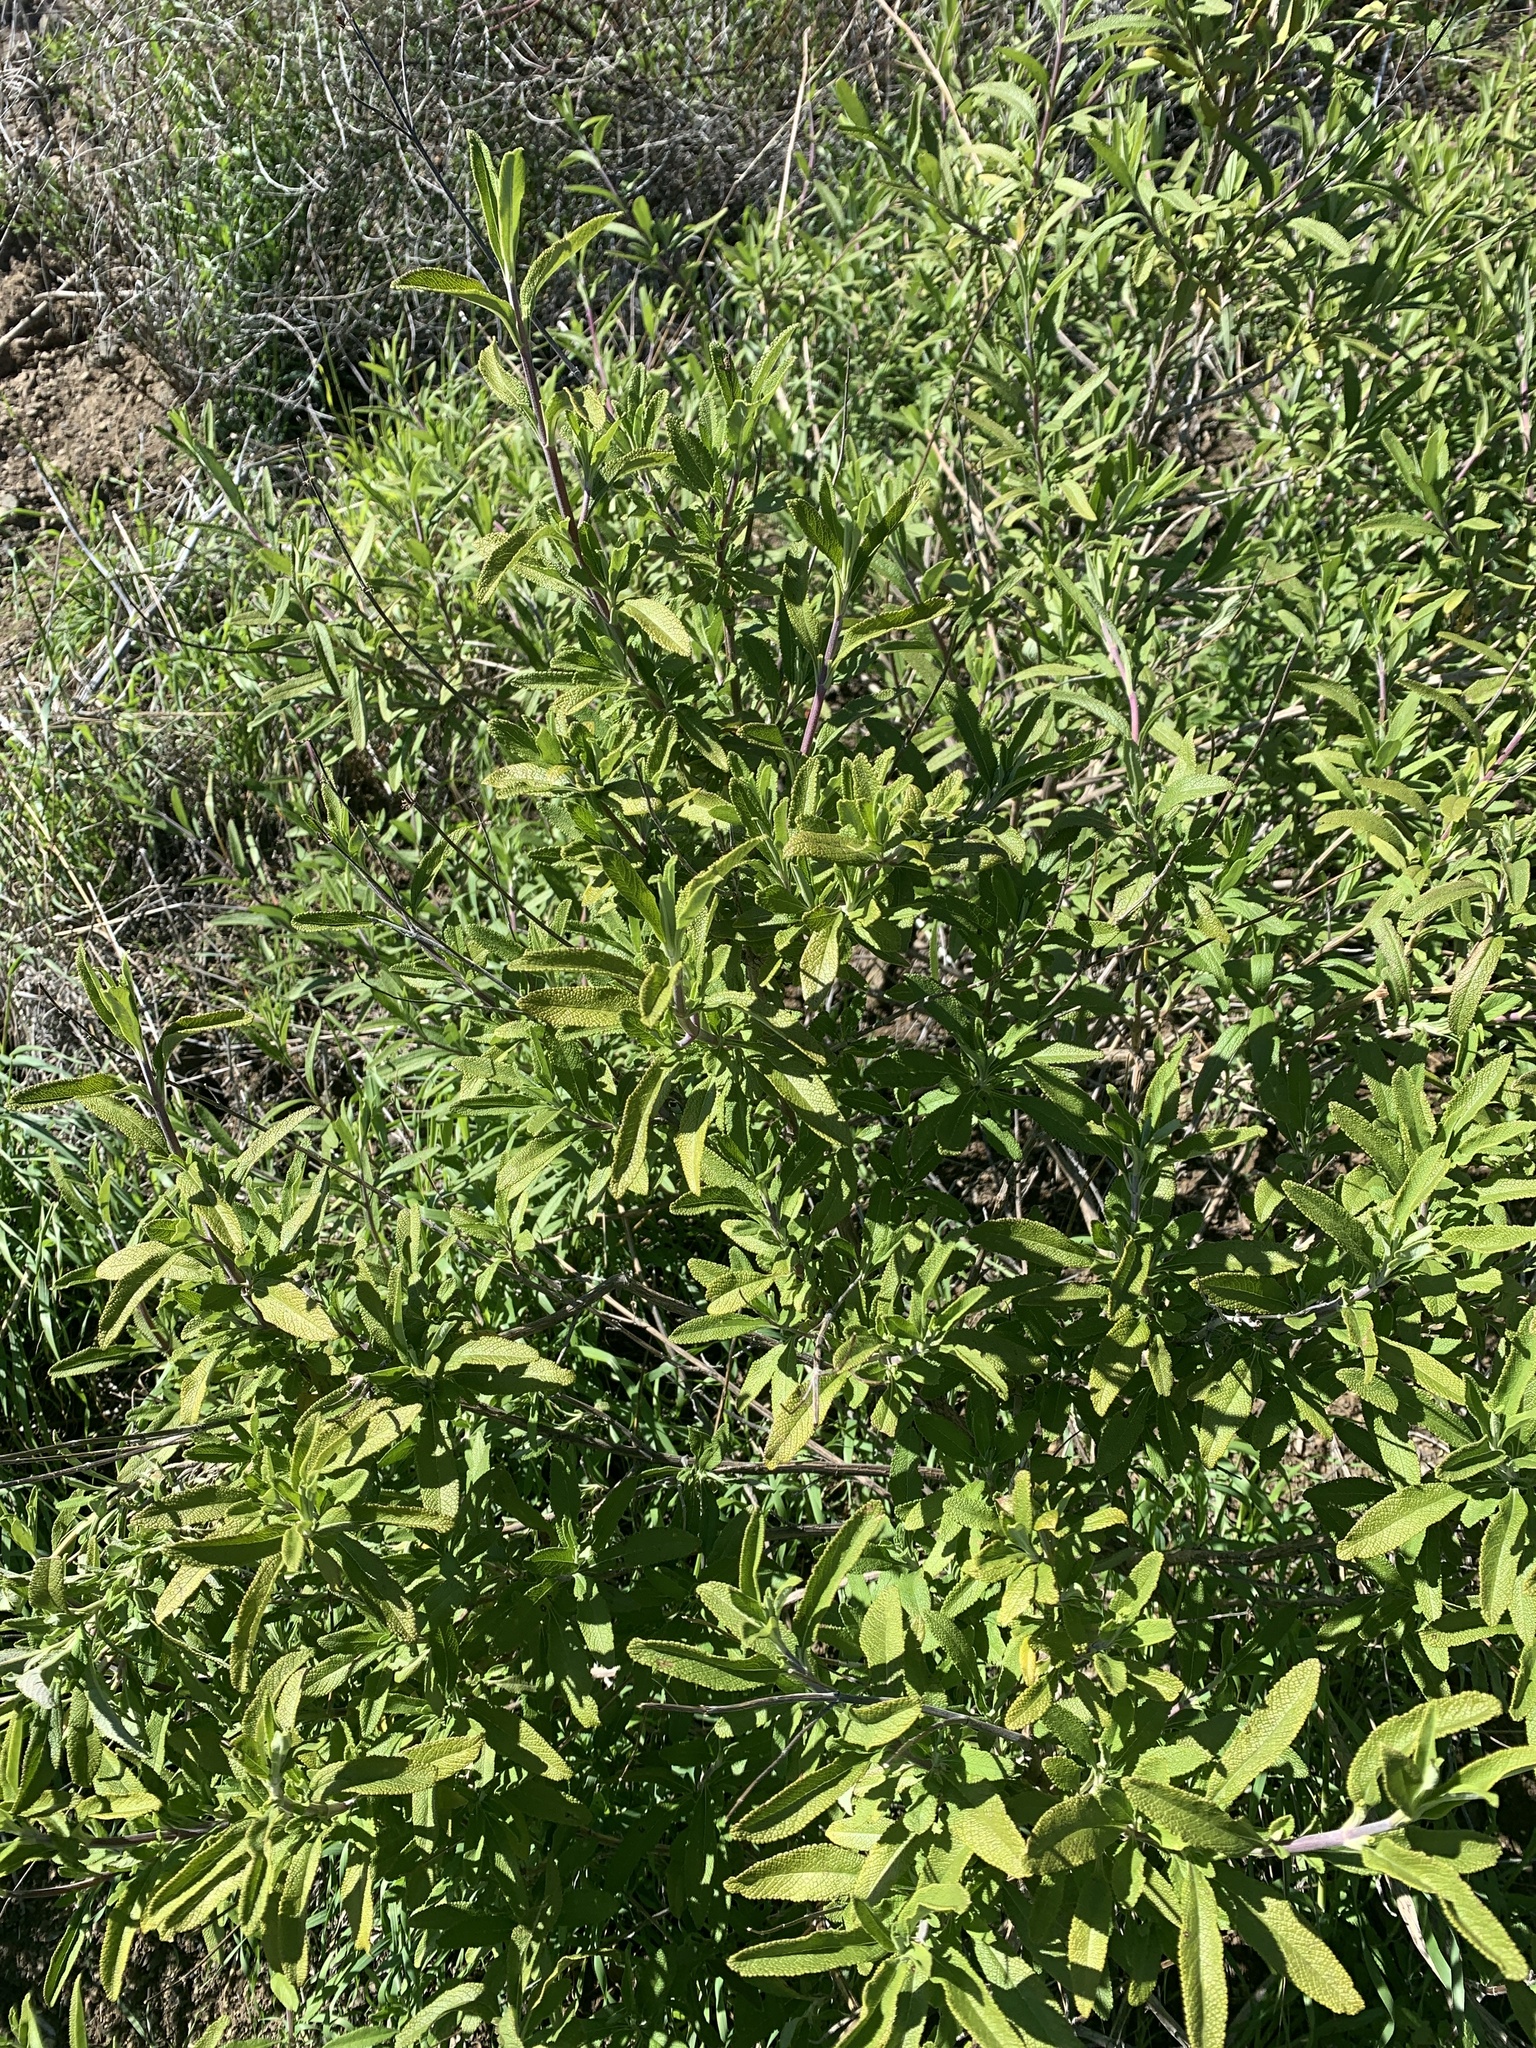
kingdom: Plantae
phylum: Tracheophyta
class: Magnoliopsida
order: Lamiales
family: Lamiaceae
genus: Salvia
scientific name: Salvia mellifera
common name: Black sage
